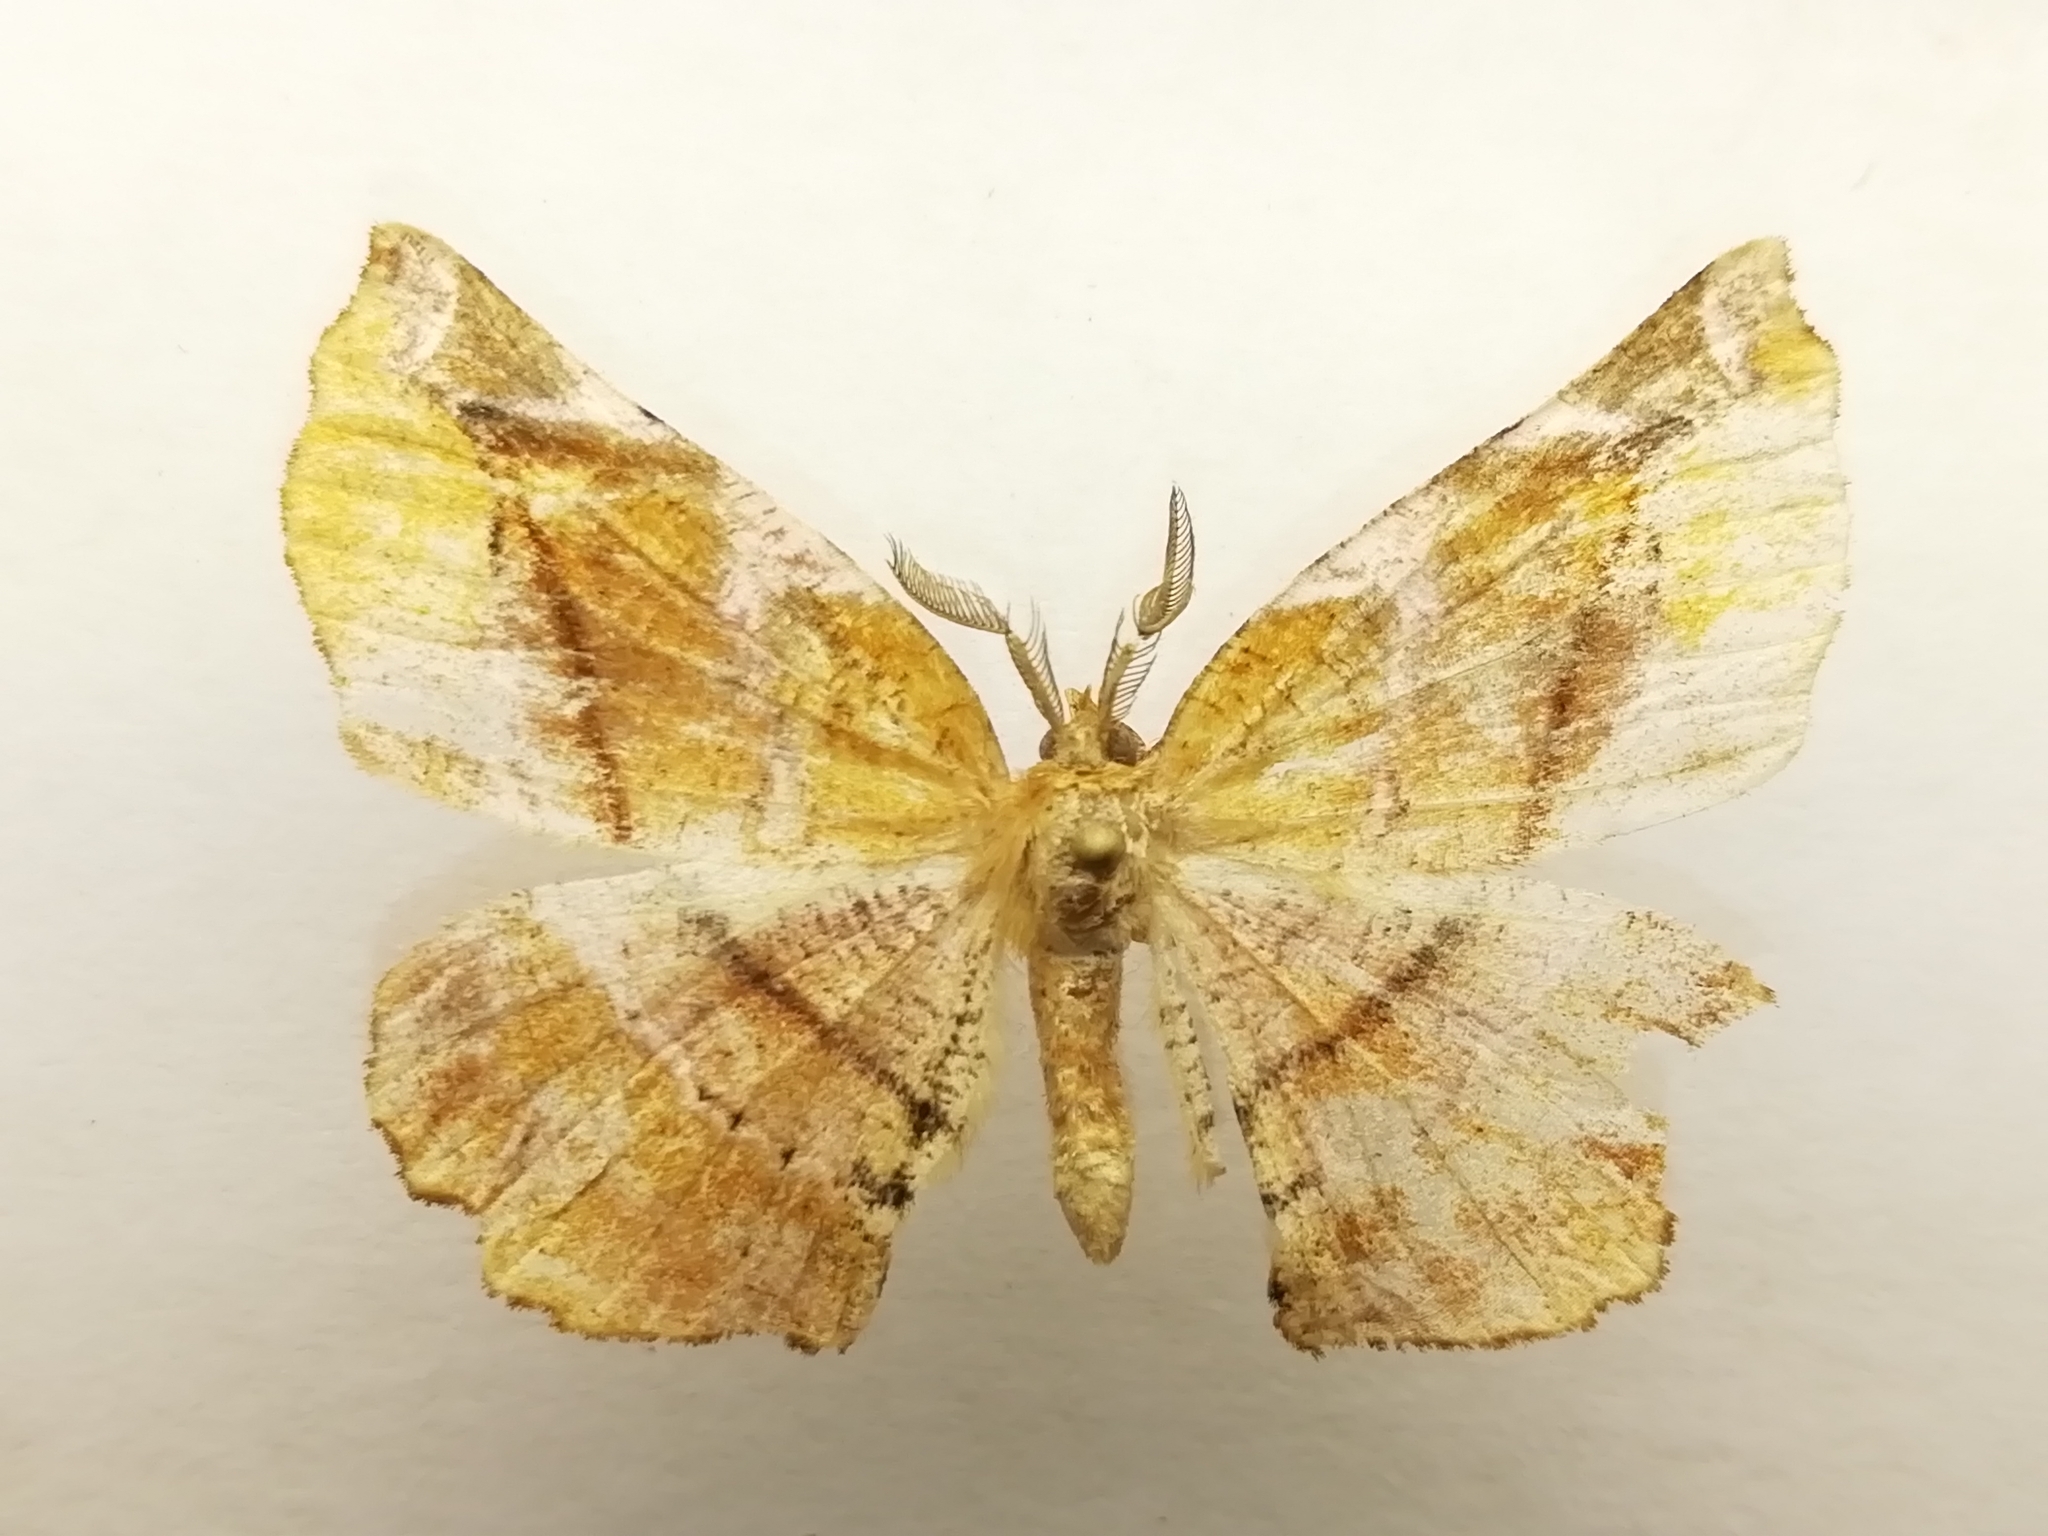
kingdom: Animalia
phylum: Arthropoda
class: Insecta
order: Lepidoptera
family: Geometridae
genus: Apeira
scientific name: Apeira syringaria
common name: Lilac beauty
